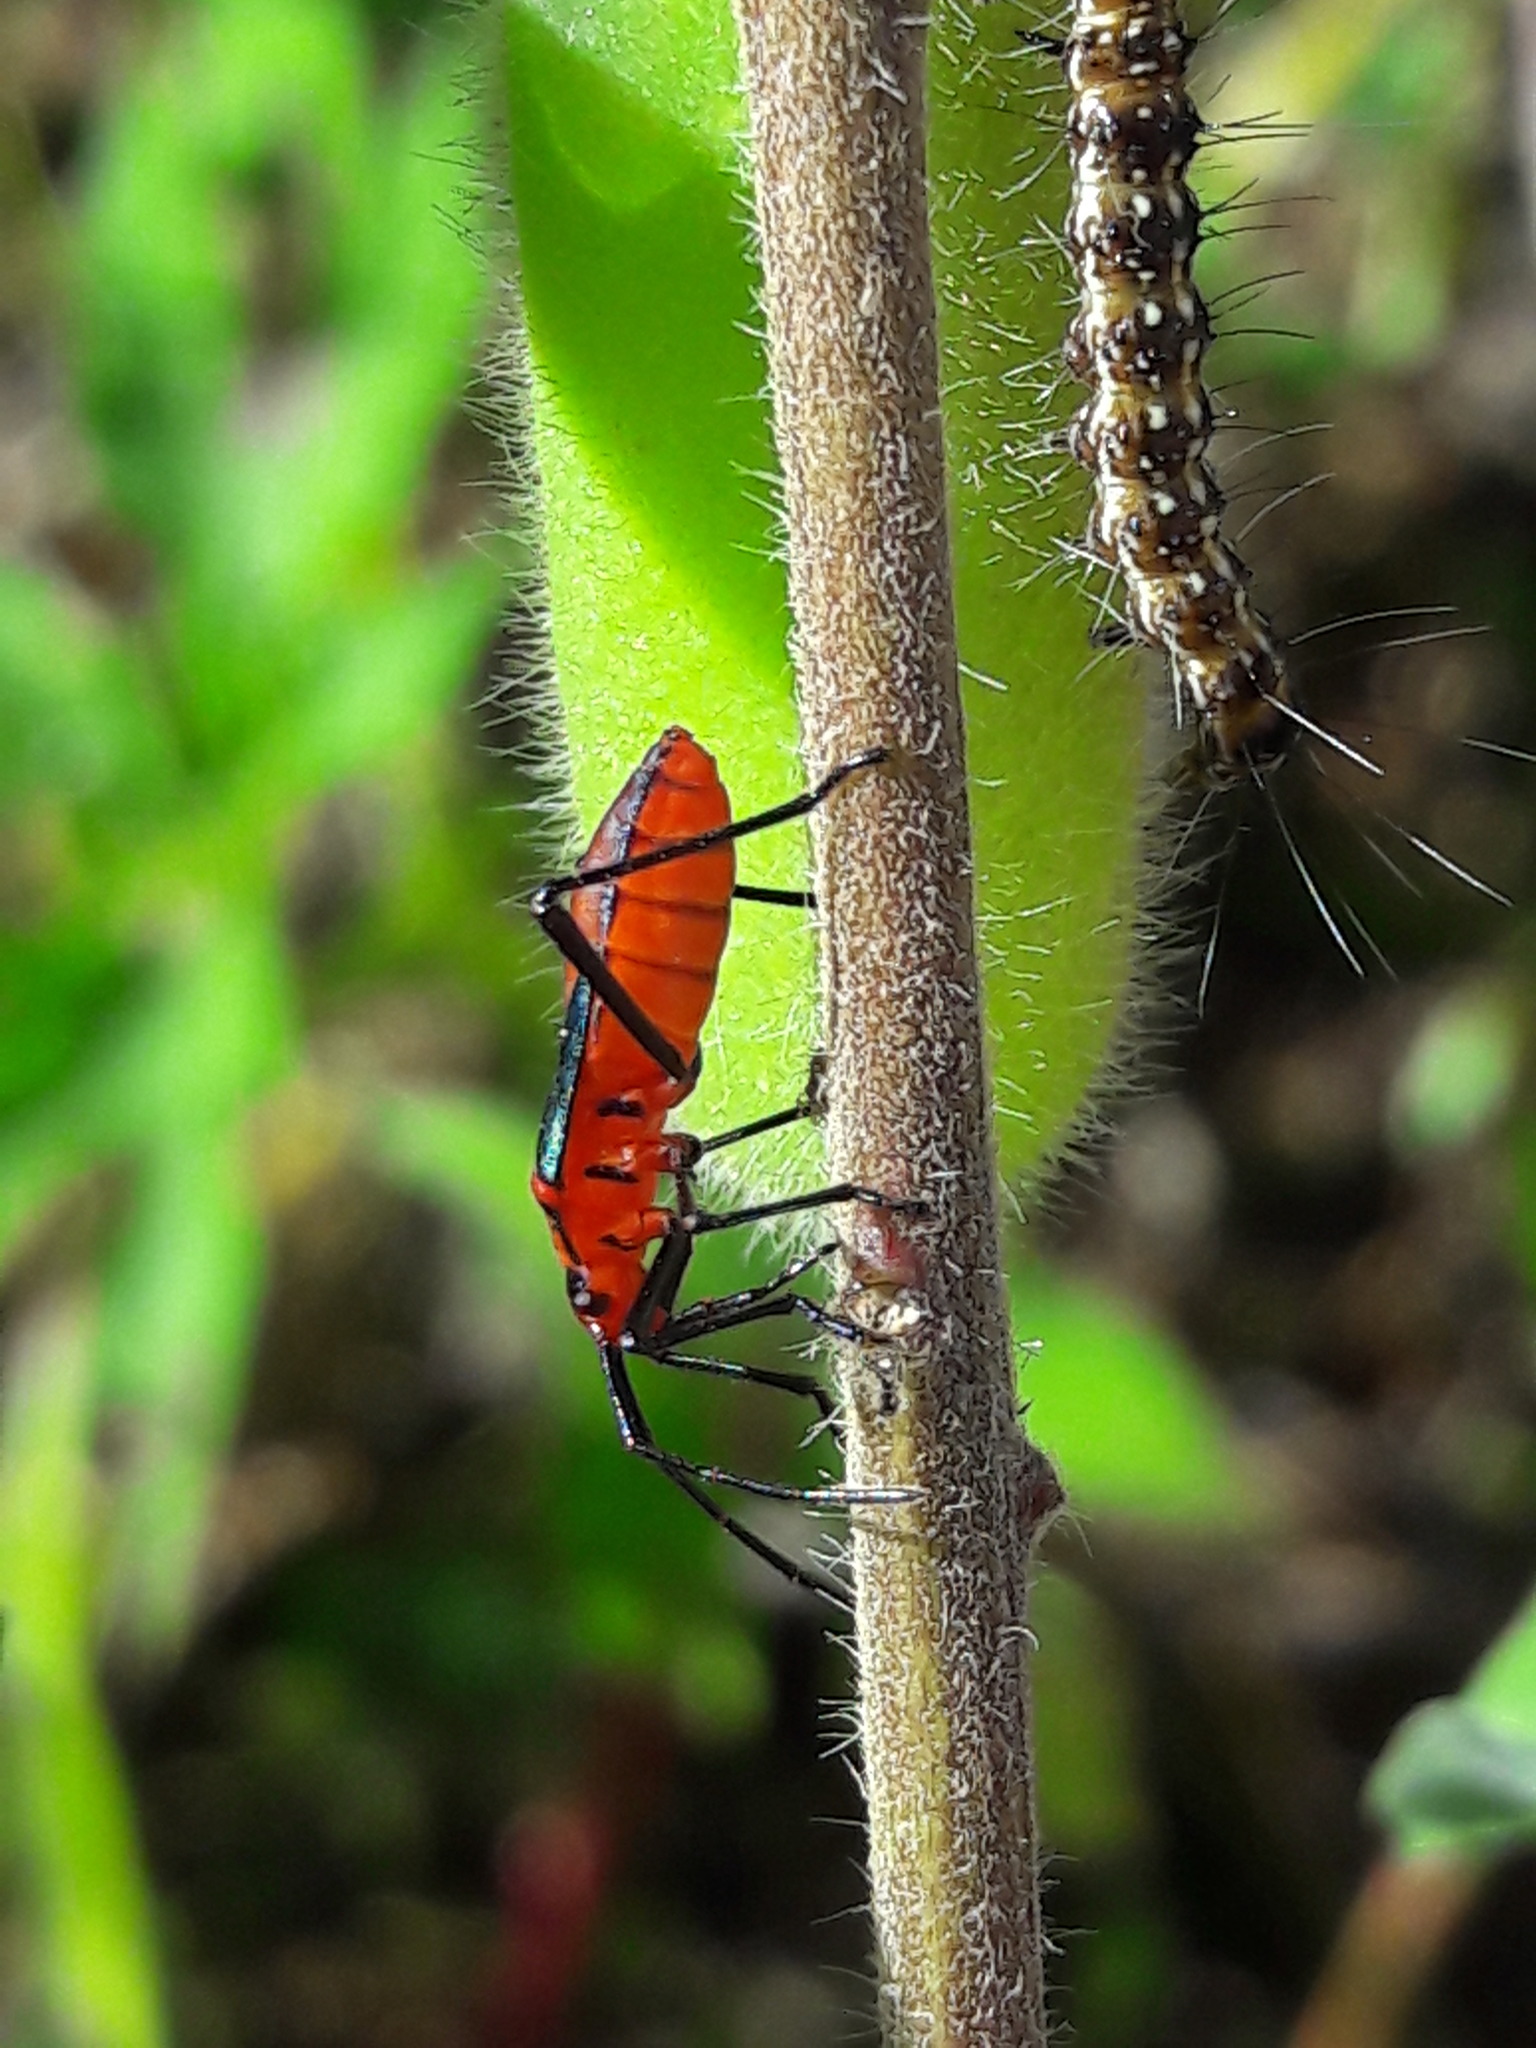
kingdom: Animalia
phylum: Arthropoda
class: Insecta
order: Hemiptera
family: Coreidae
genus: Sphictyrtus
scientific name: Sphictyrtus chrysis
